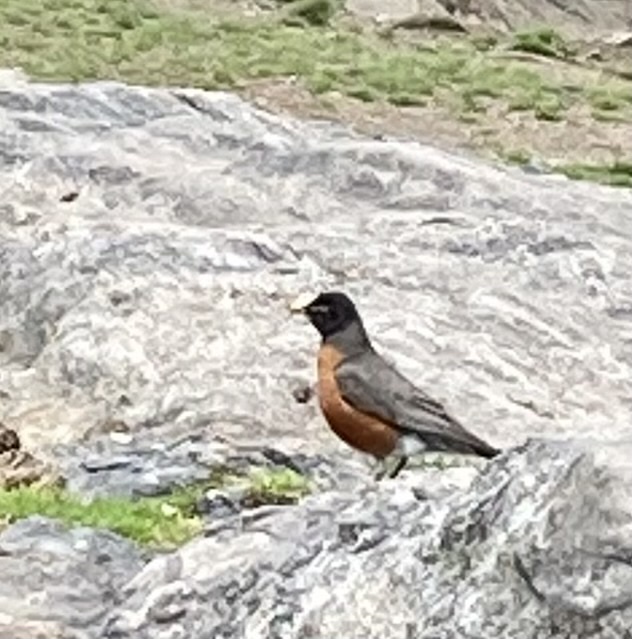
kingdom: Animalia
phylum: Chordata
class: Aves
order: Passeriformes
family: Turdidae
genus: Turdus
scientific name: Turdus migratorius
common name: American robin
